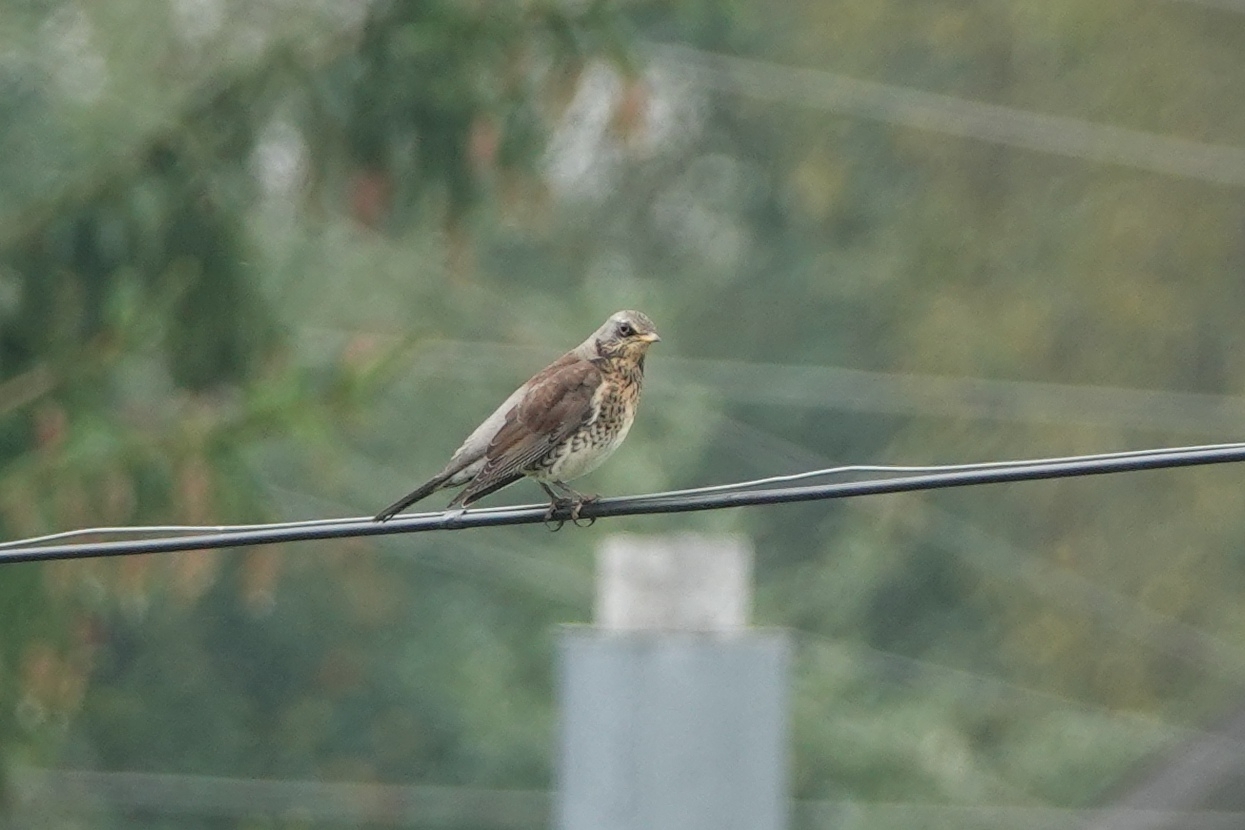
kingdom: Animalia
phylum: Chordata
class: Aves
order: Passeriformes
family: Turdidae
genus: Turdus
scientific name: Turdus pilaris
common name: Fieldfare
